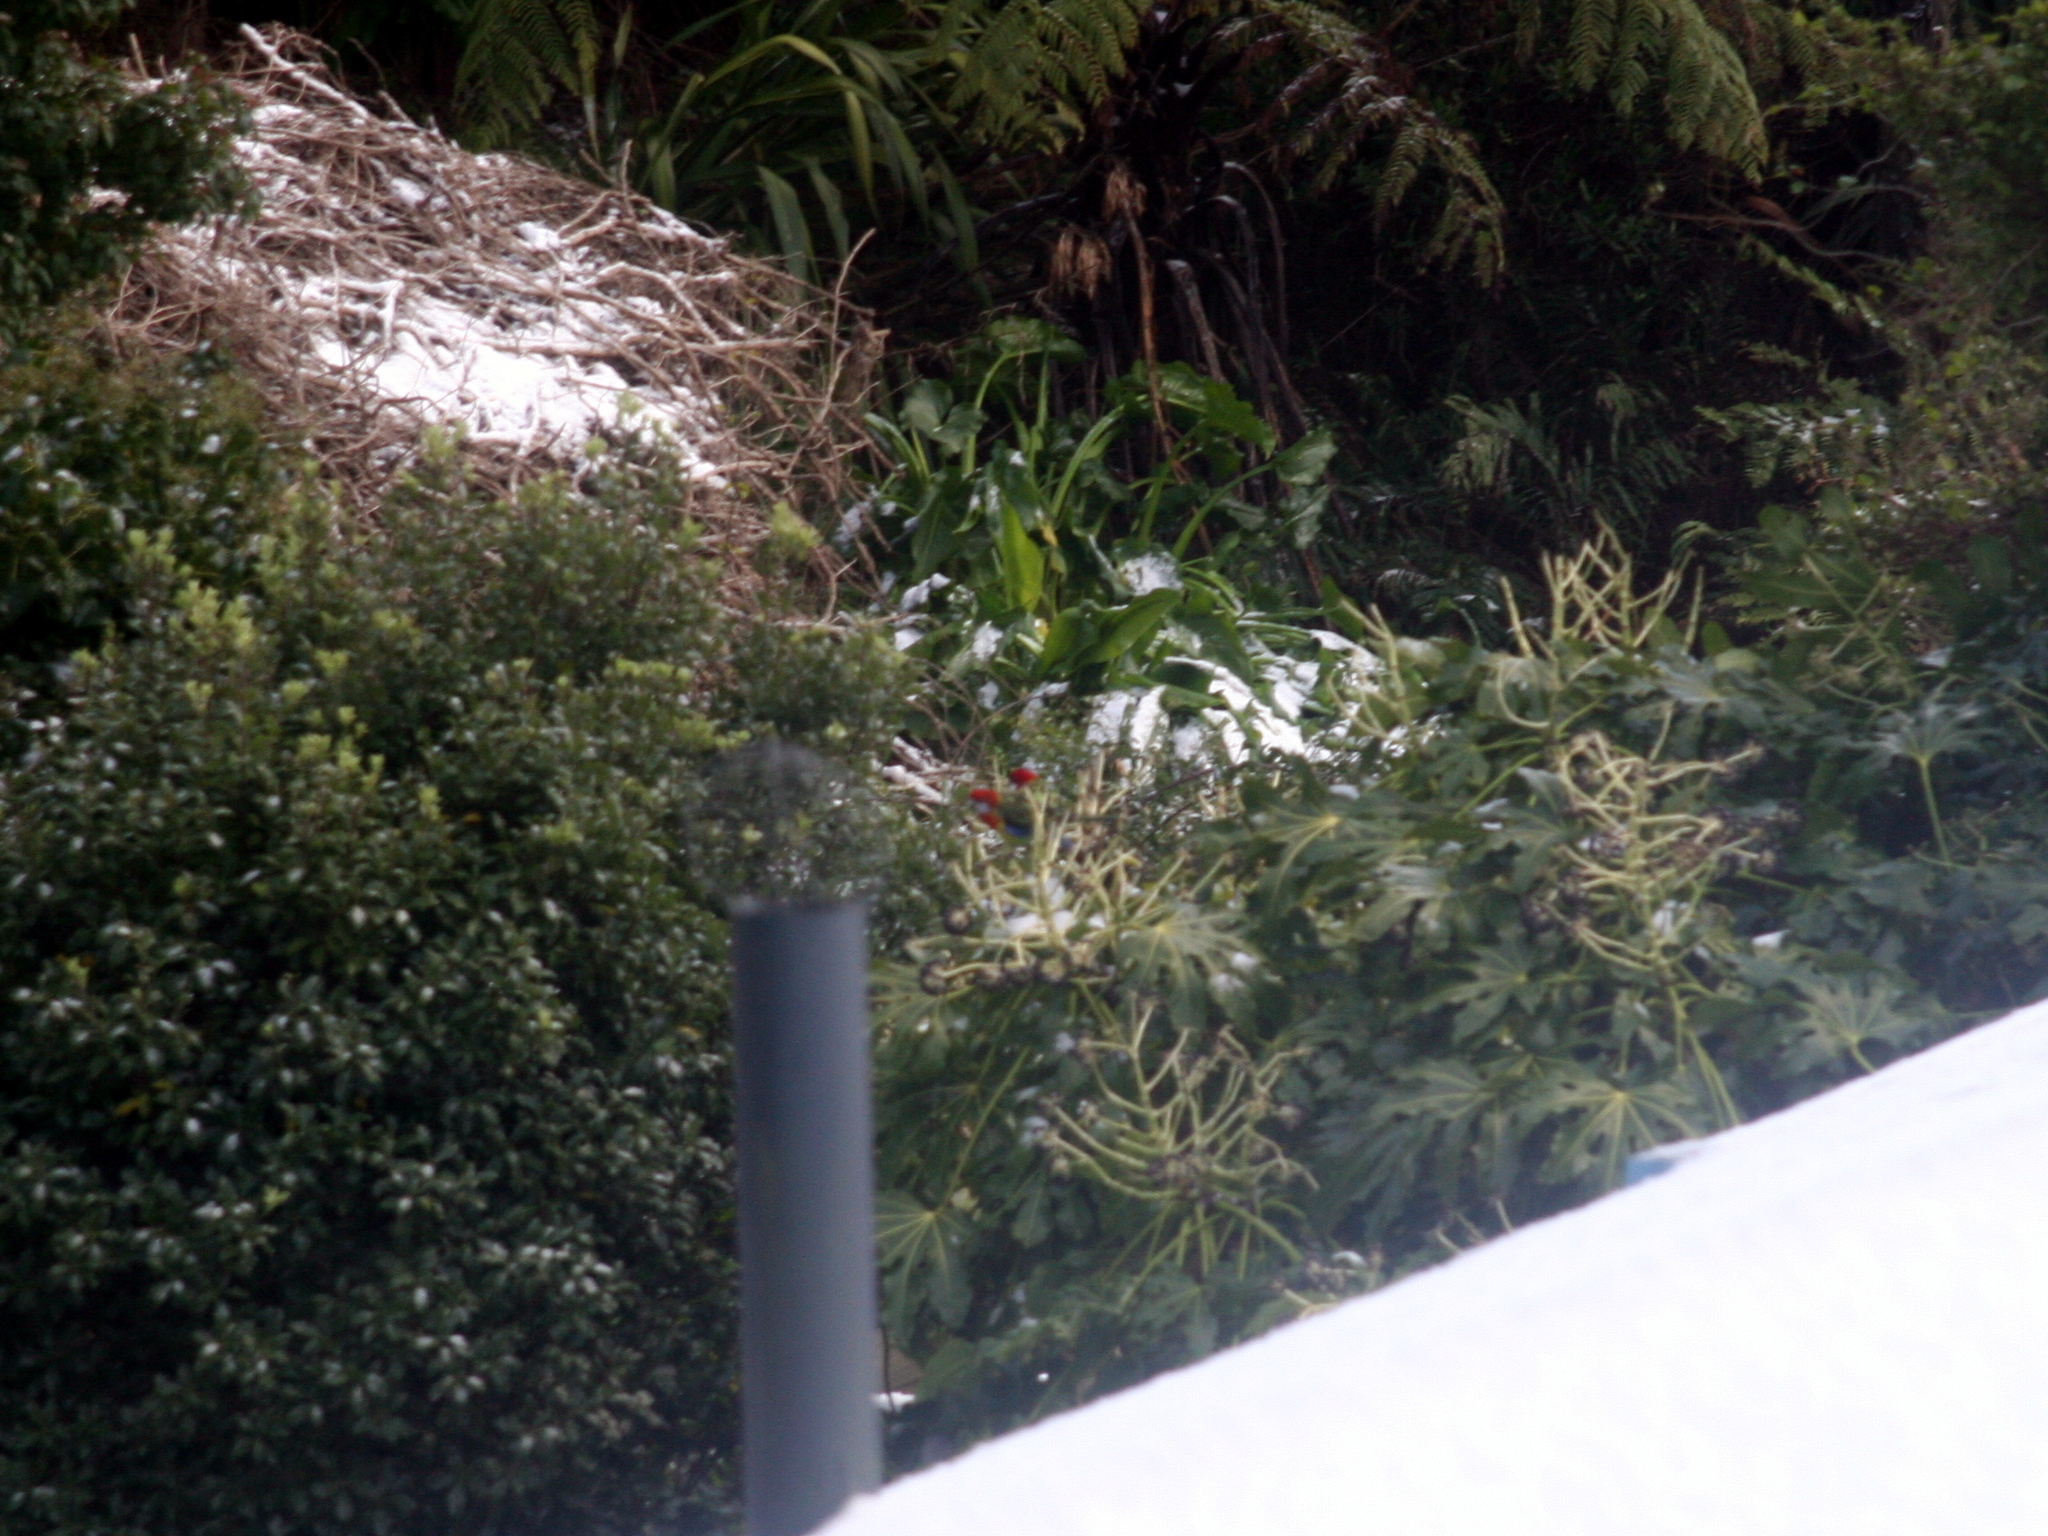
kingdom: Animalia
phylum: Chordata
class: Aves
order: Psittaciformes
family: Psittacidae
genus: Platycercus
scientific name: Platycercus eximius
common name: Eastern rosella
